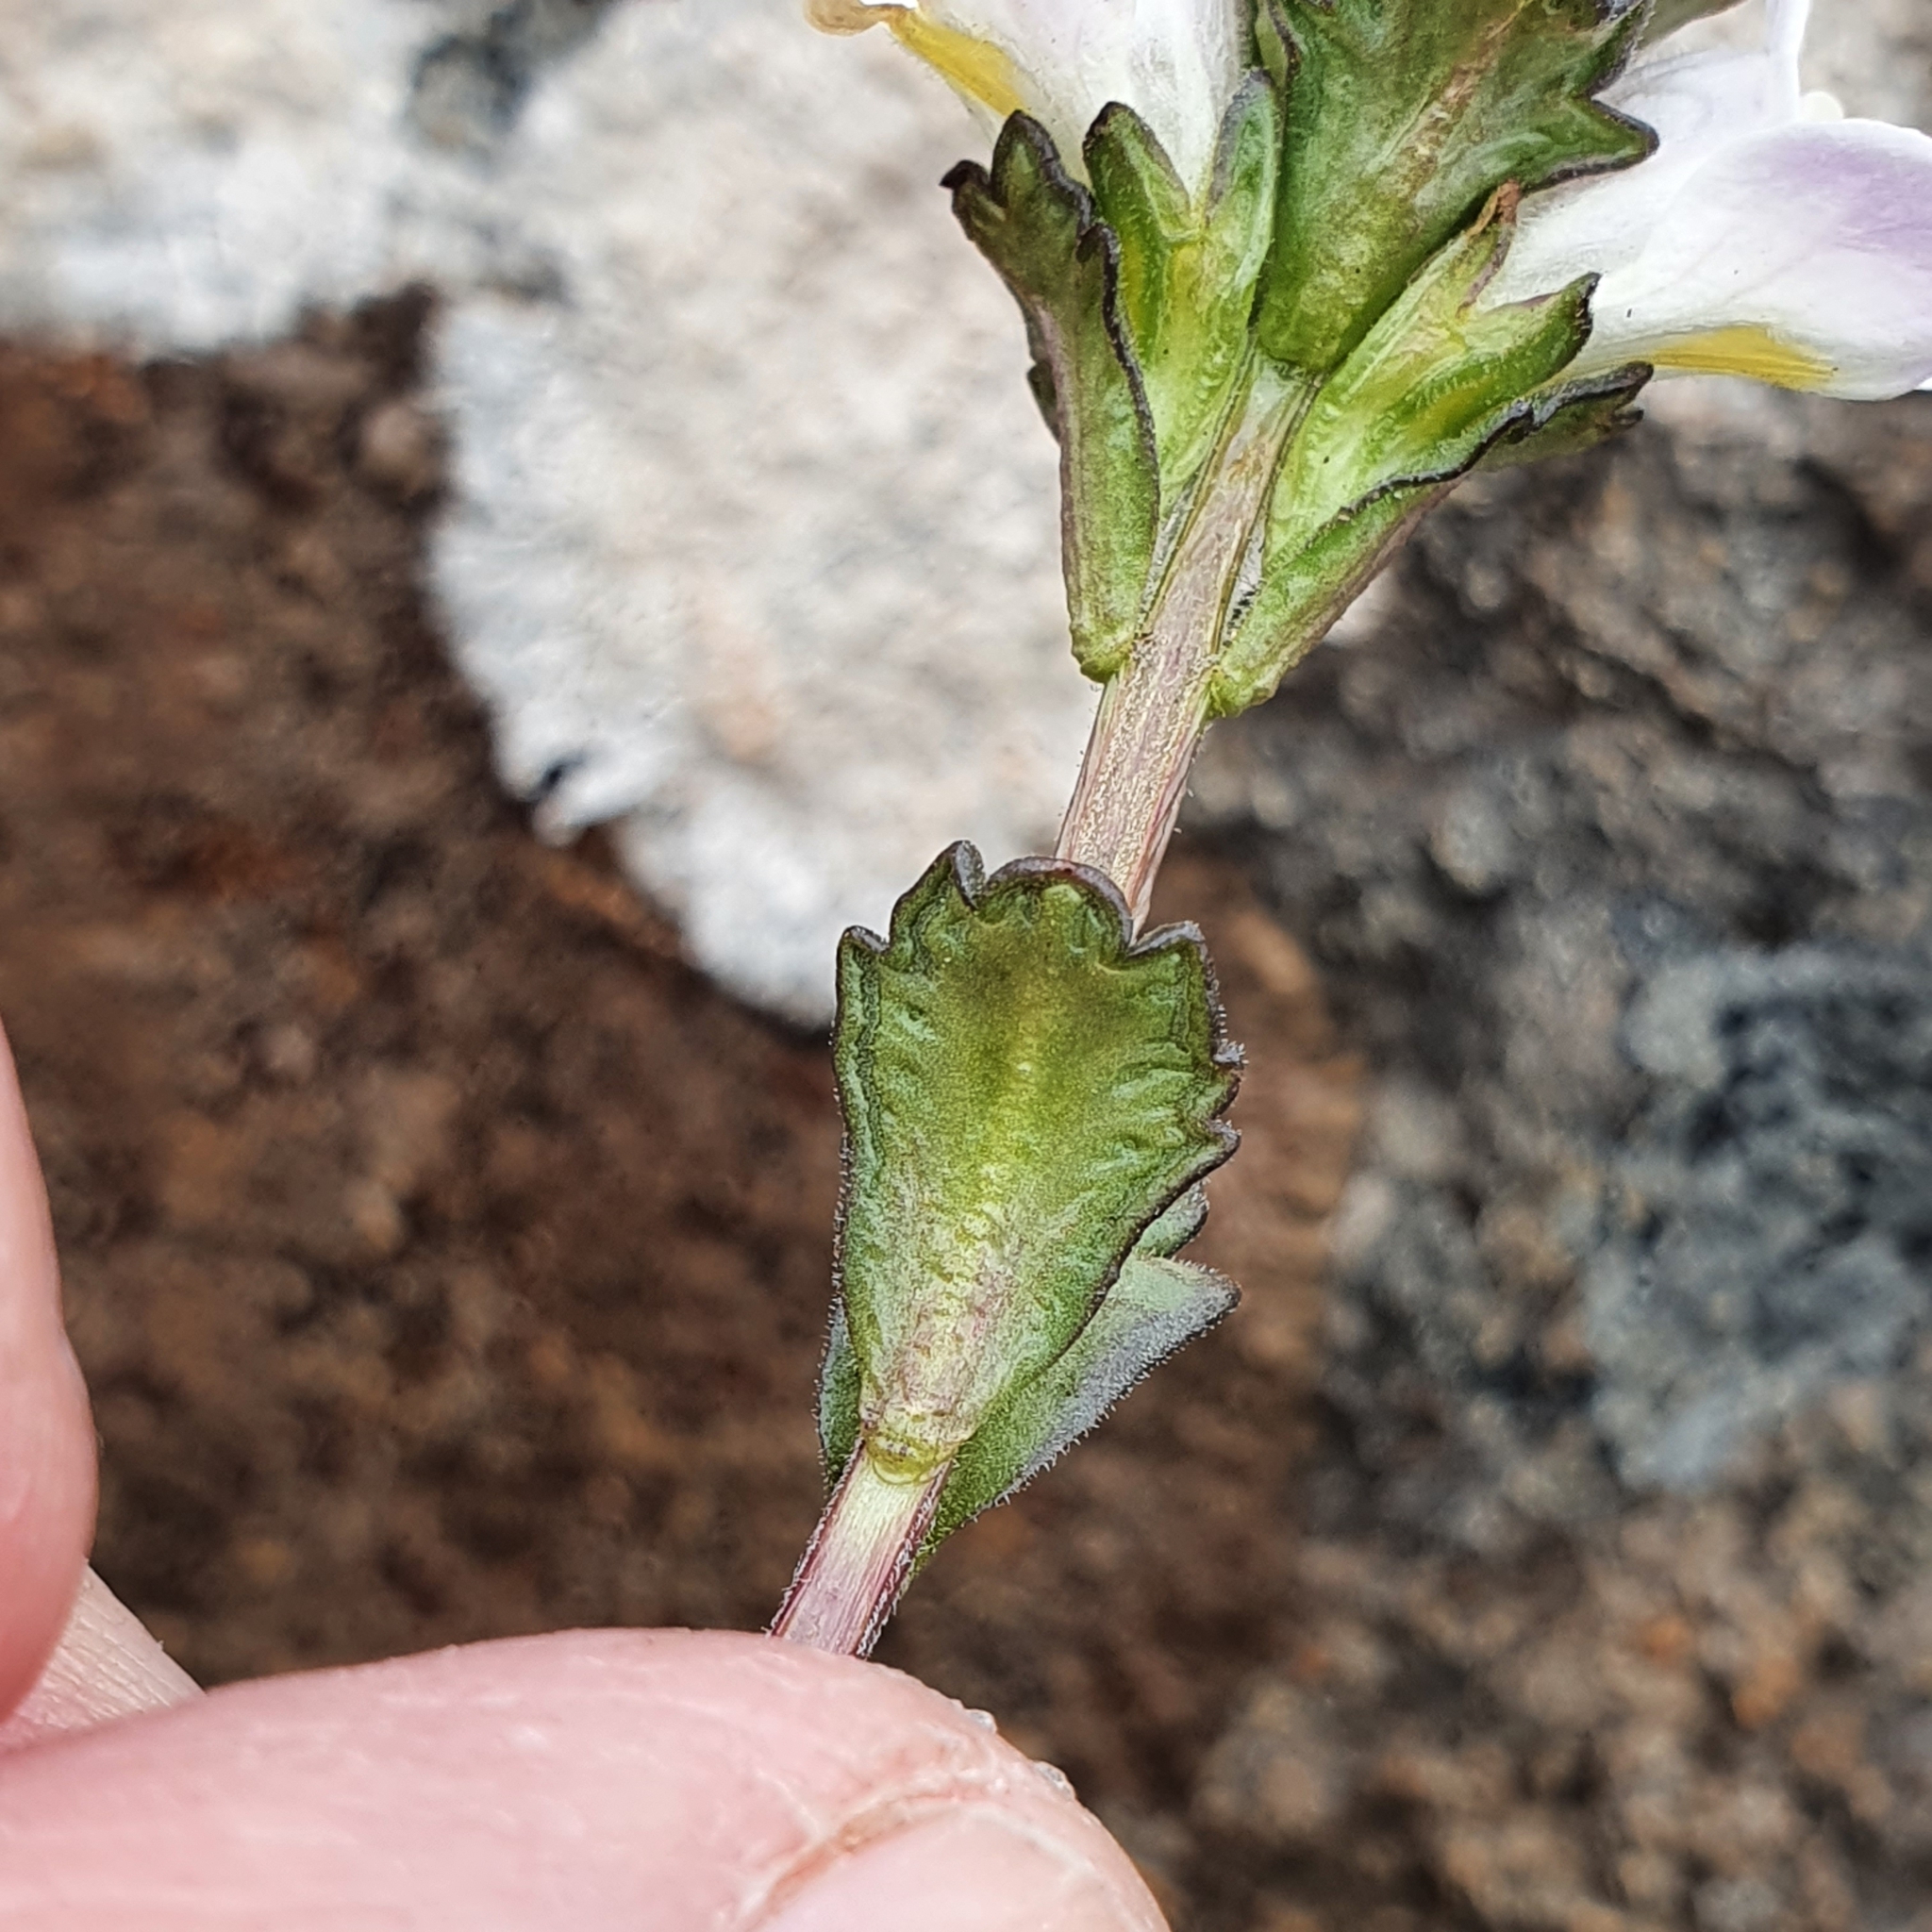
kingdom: Plantae
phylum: Tracheophyta
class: Magnoliopsida
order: Lamiales
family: Orobanchaceae
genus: Euphrasia
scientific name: Euphrasia collina
